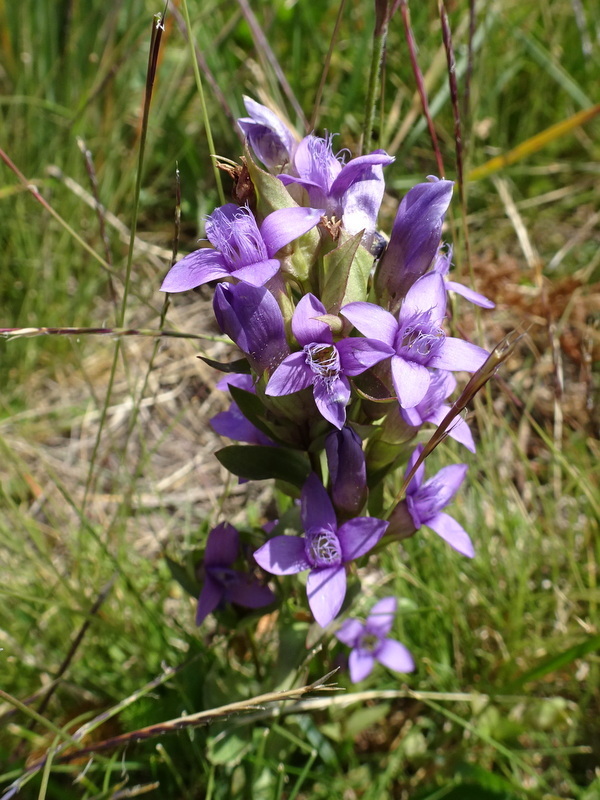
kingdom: Plantae
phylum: Tracheophyta
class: Magnoliopsida
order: Gentianales
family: Gentianaceae
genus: Gentianella
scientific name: Gentianella campestris
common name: Field gentian
